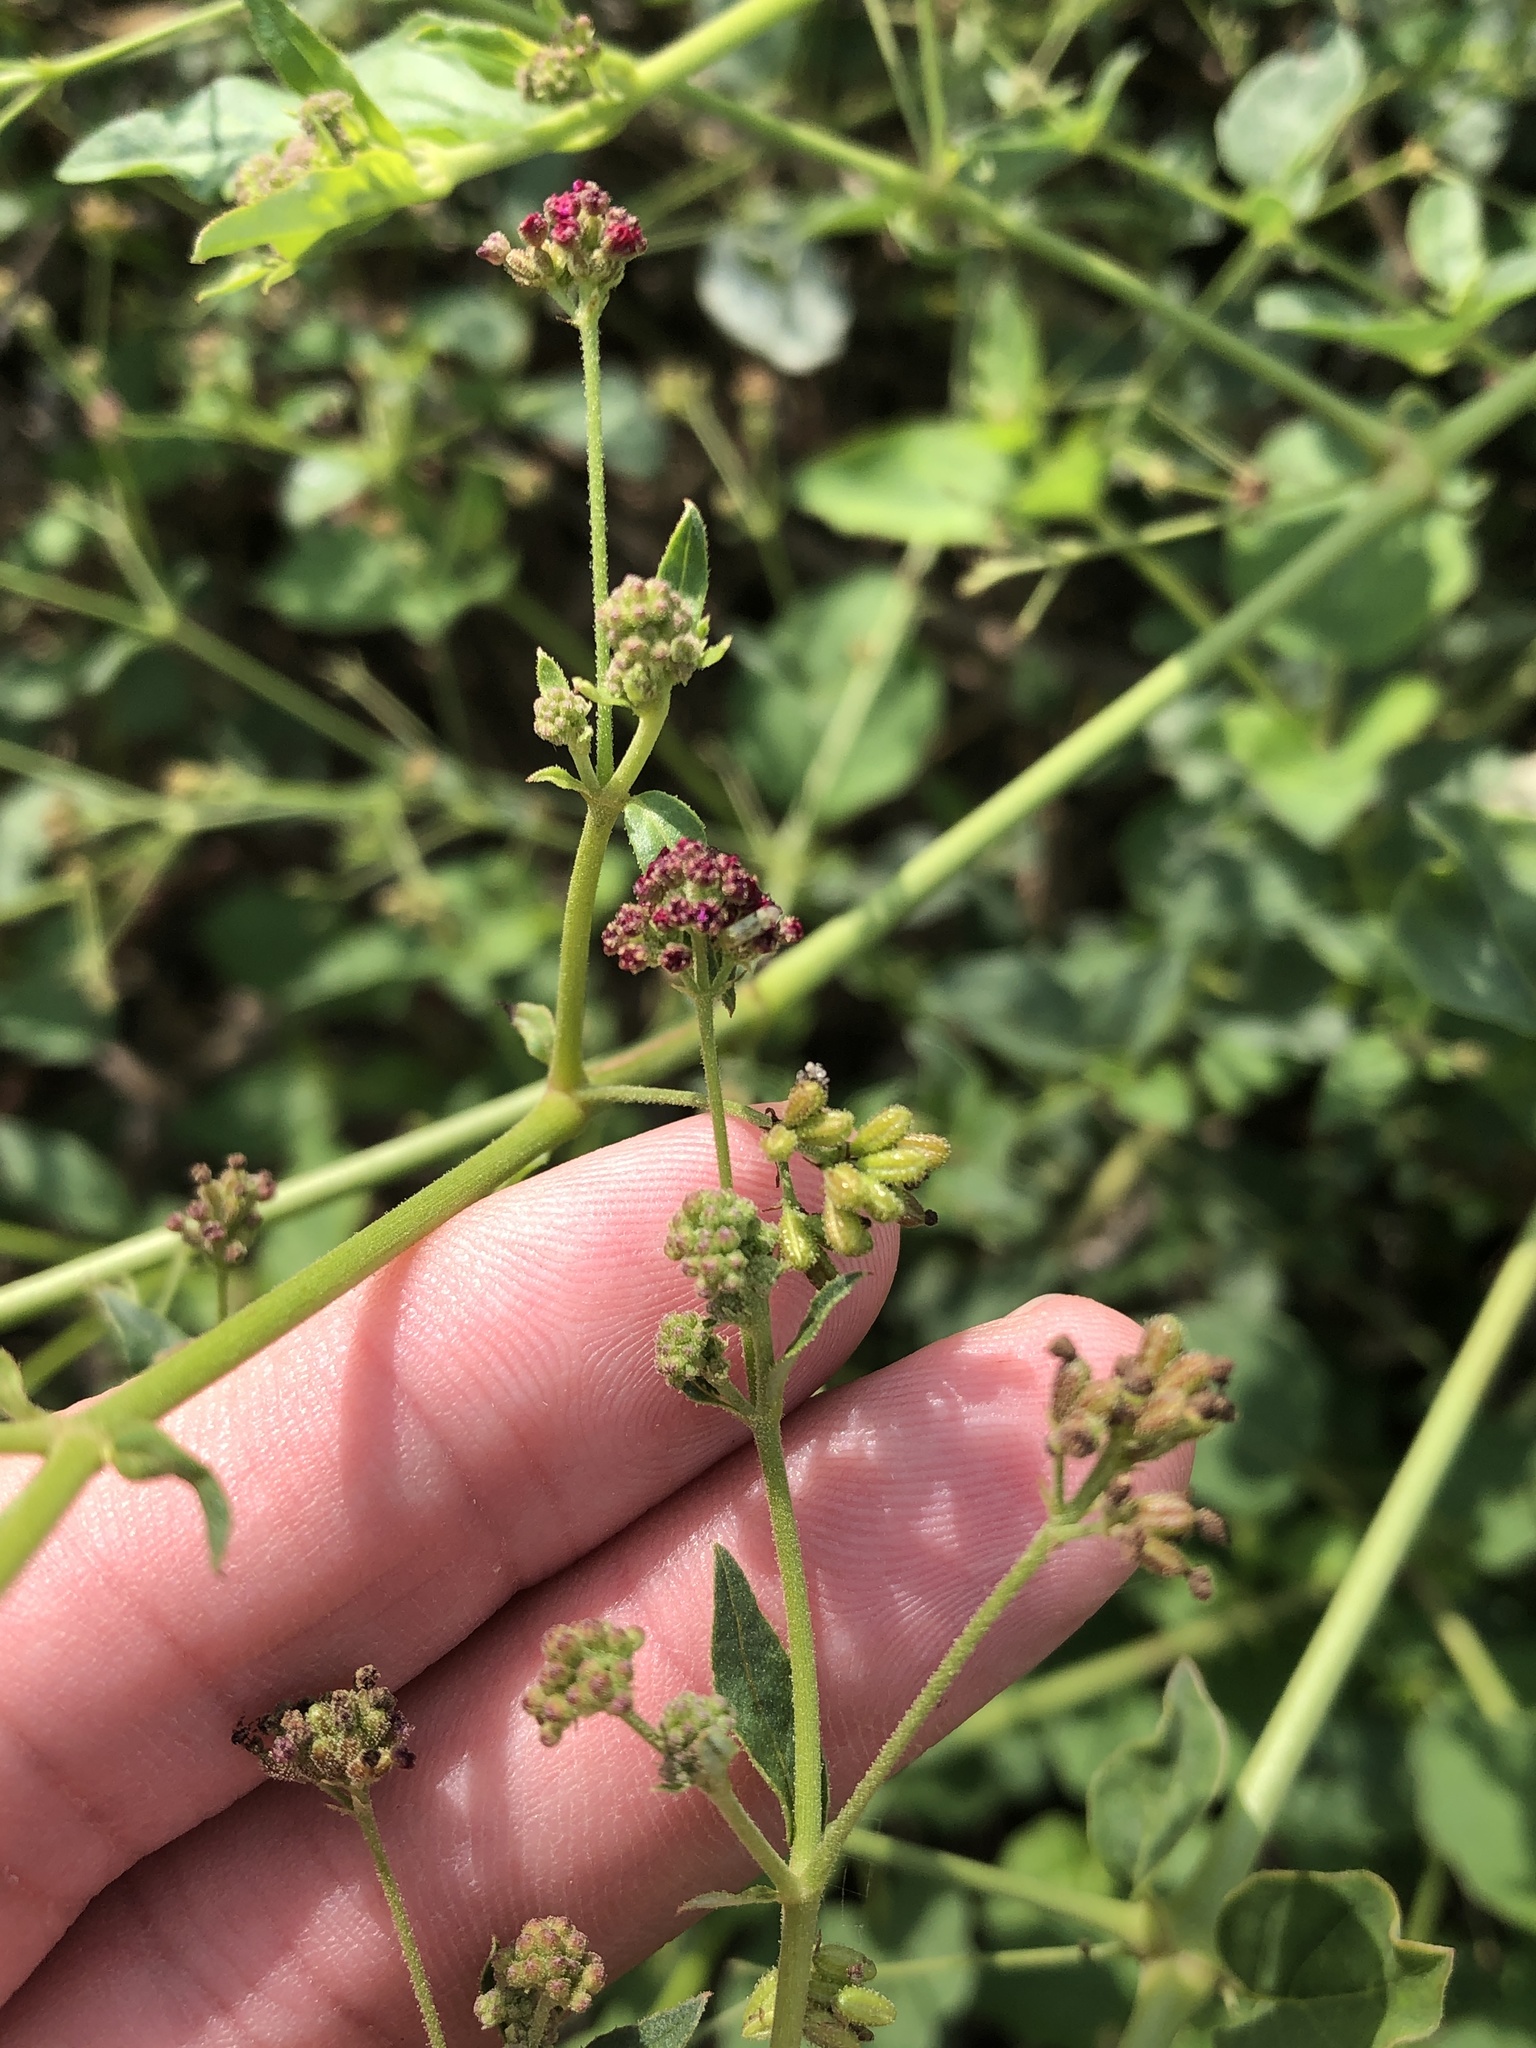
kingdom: Plantae
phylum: Tracheophyta
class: Magnoliopsida
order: Caryophyllales
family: Nyctaginaceae
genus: Boerhavia
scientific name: Boerhavia coccinea
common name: Scarlet spiderling
